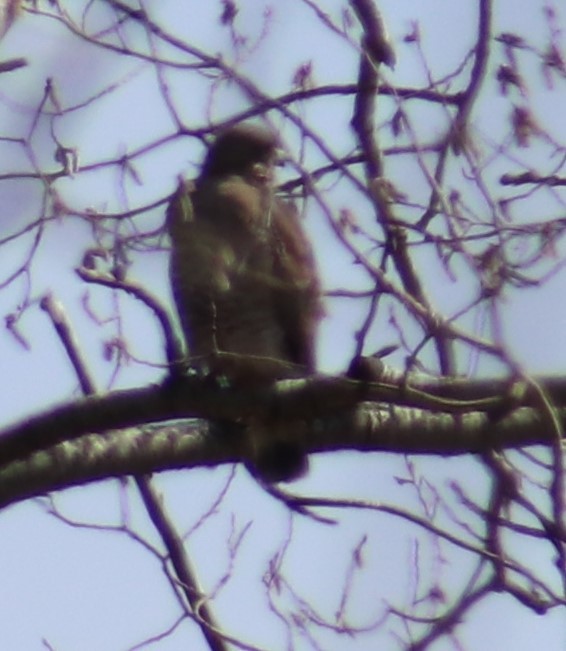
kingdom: Animalia
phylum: Chordata
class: Aves
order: Accipitriformes
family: Accipitridae
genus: Buteo
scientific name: Buteo platypterus
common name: Broad-winged hawk
